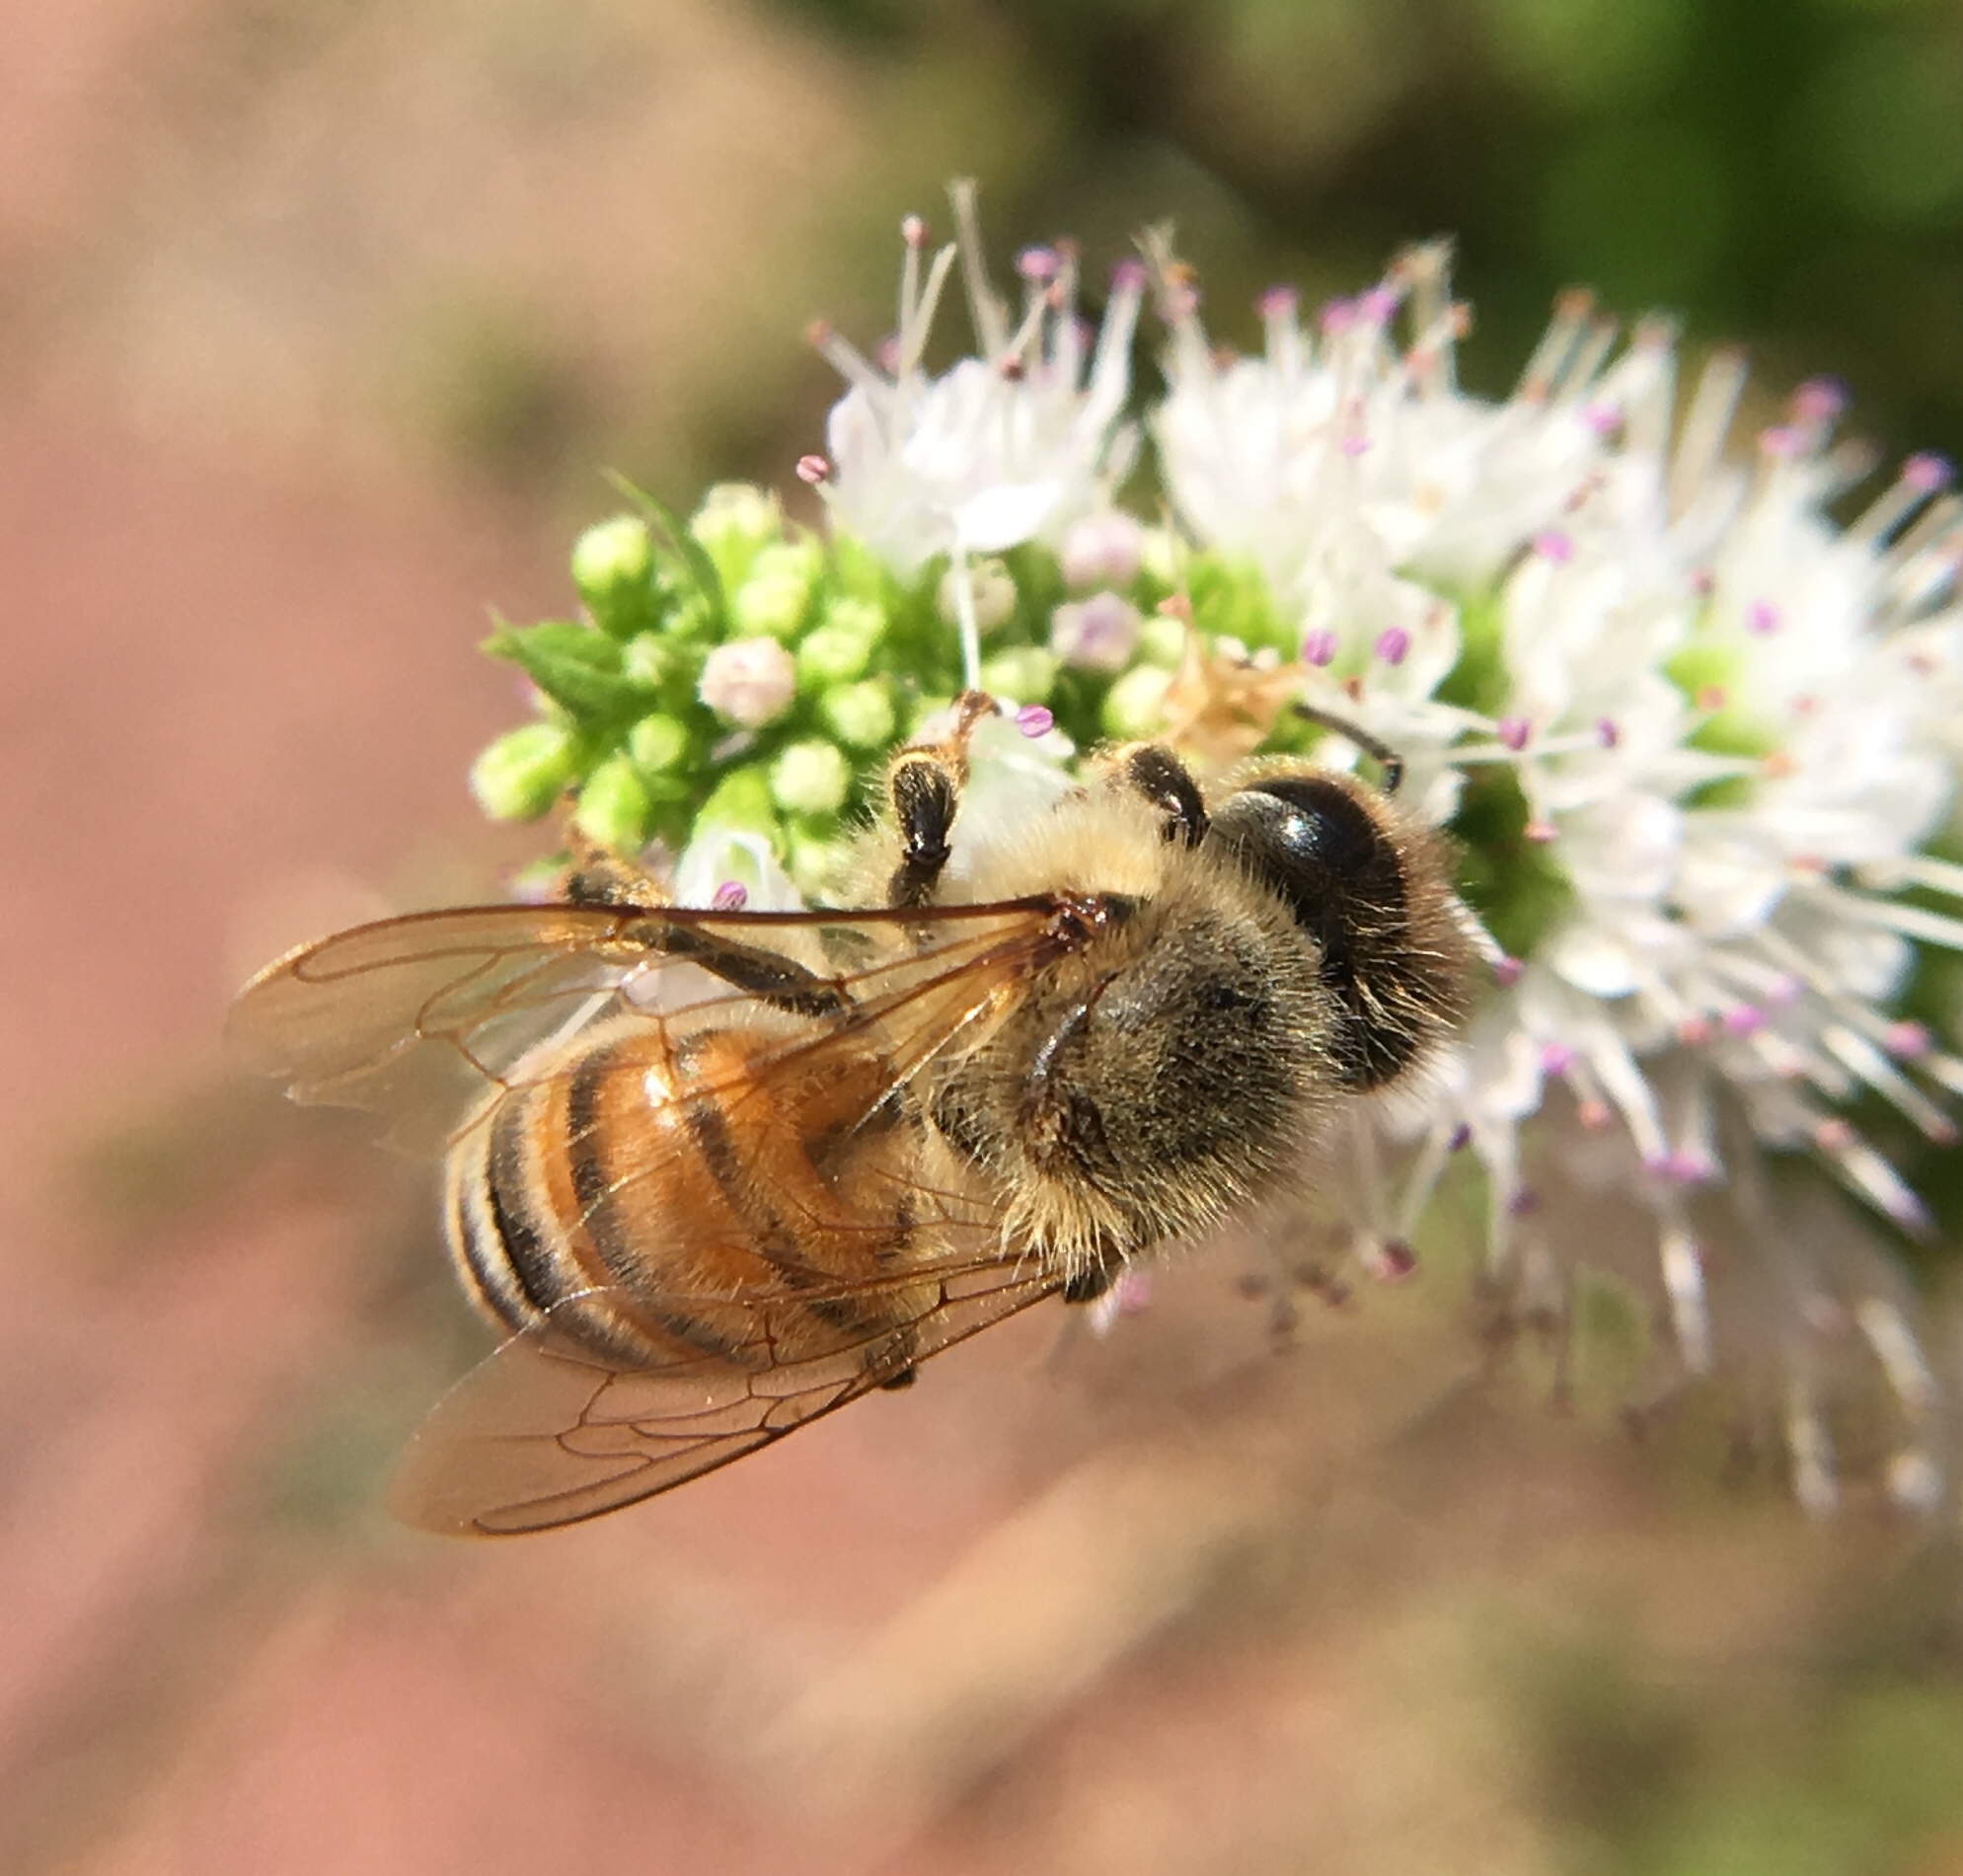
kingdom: Animalia
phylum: Arthropoda
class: Insecta
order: Hymenoptera
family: Apidae
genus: Apis
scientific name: Apis mellifera
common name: Honey bee
